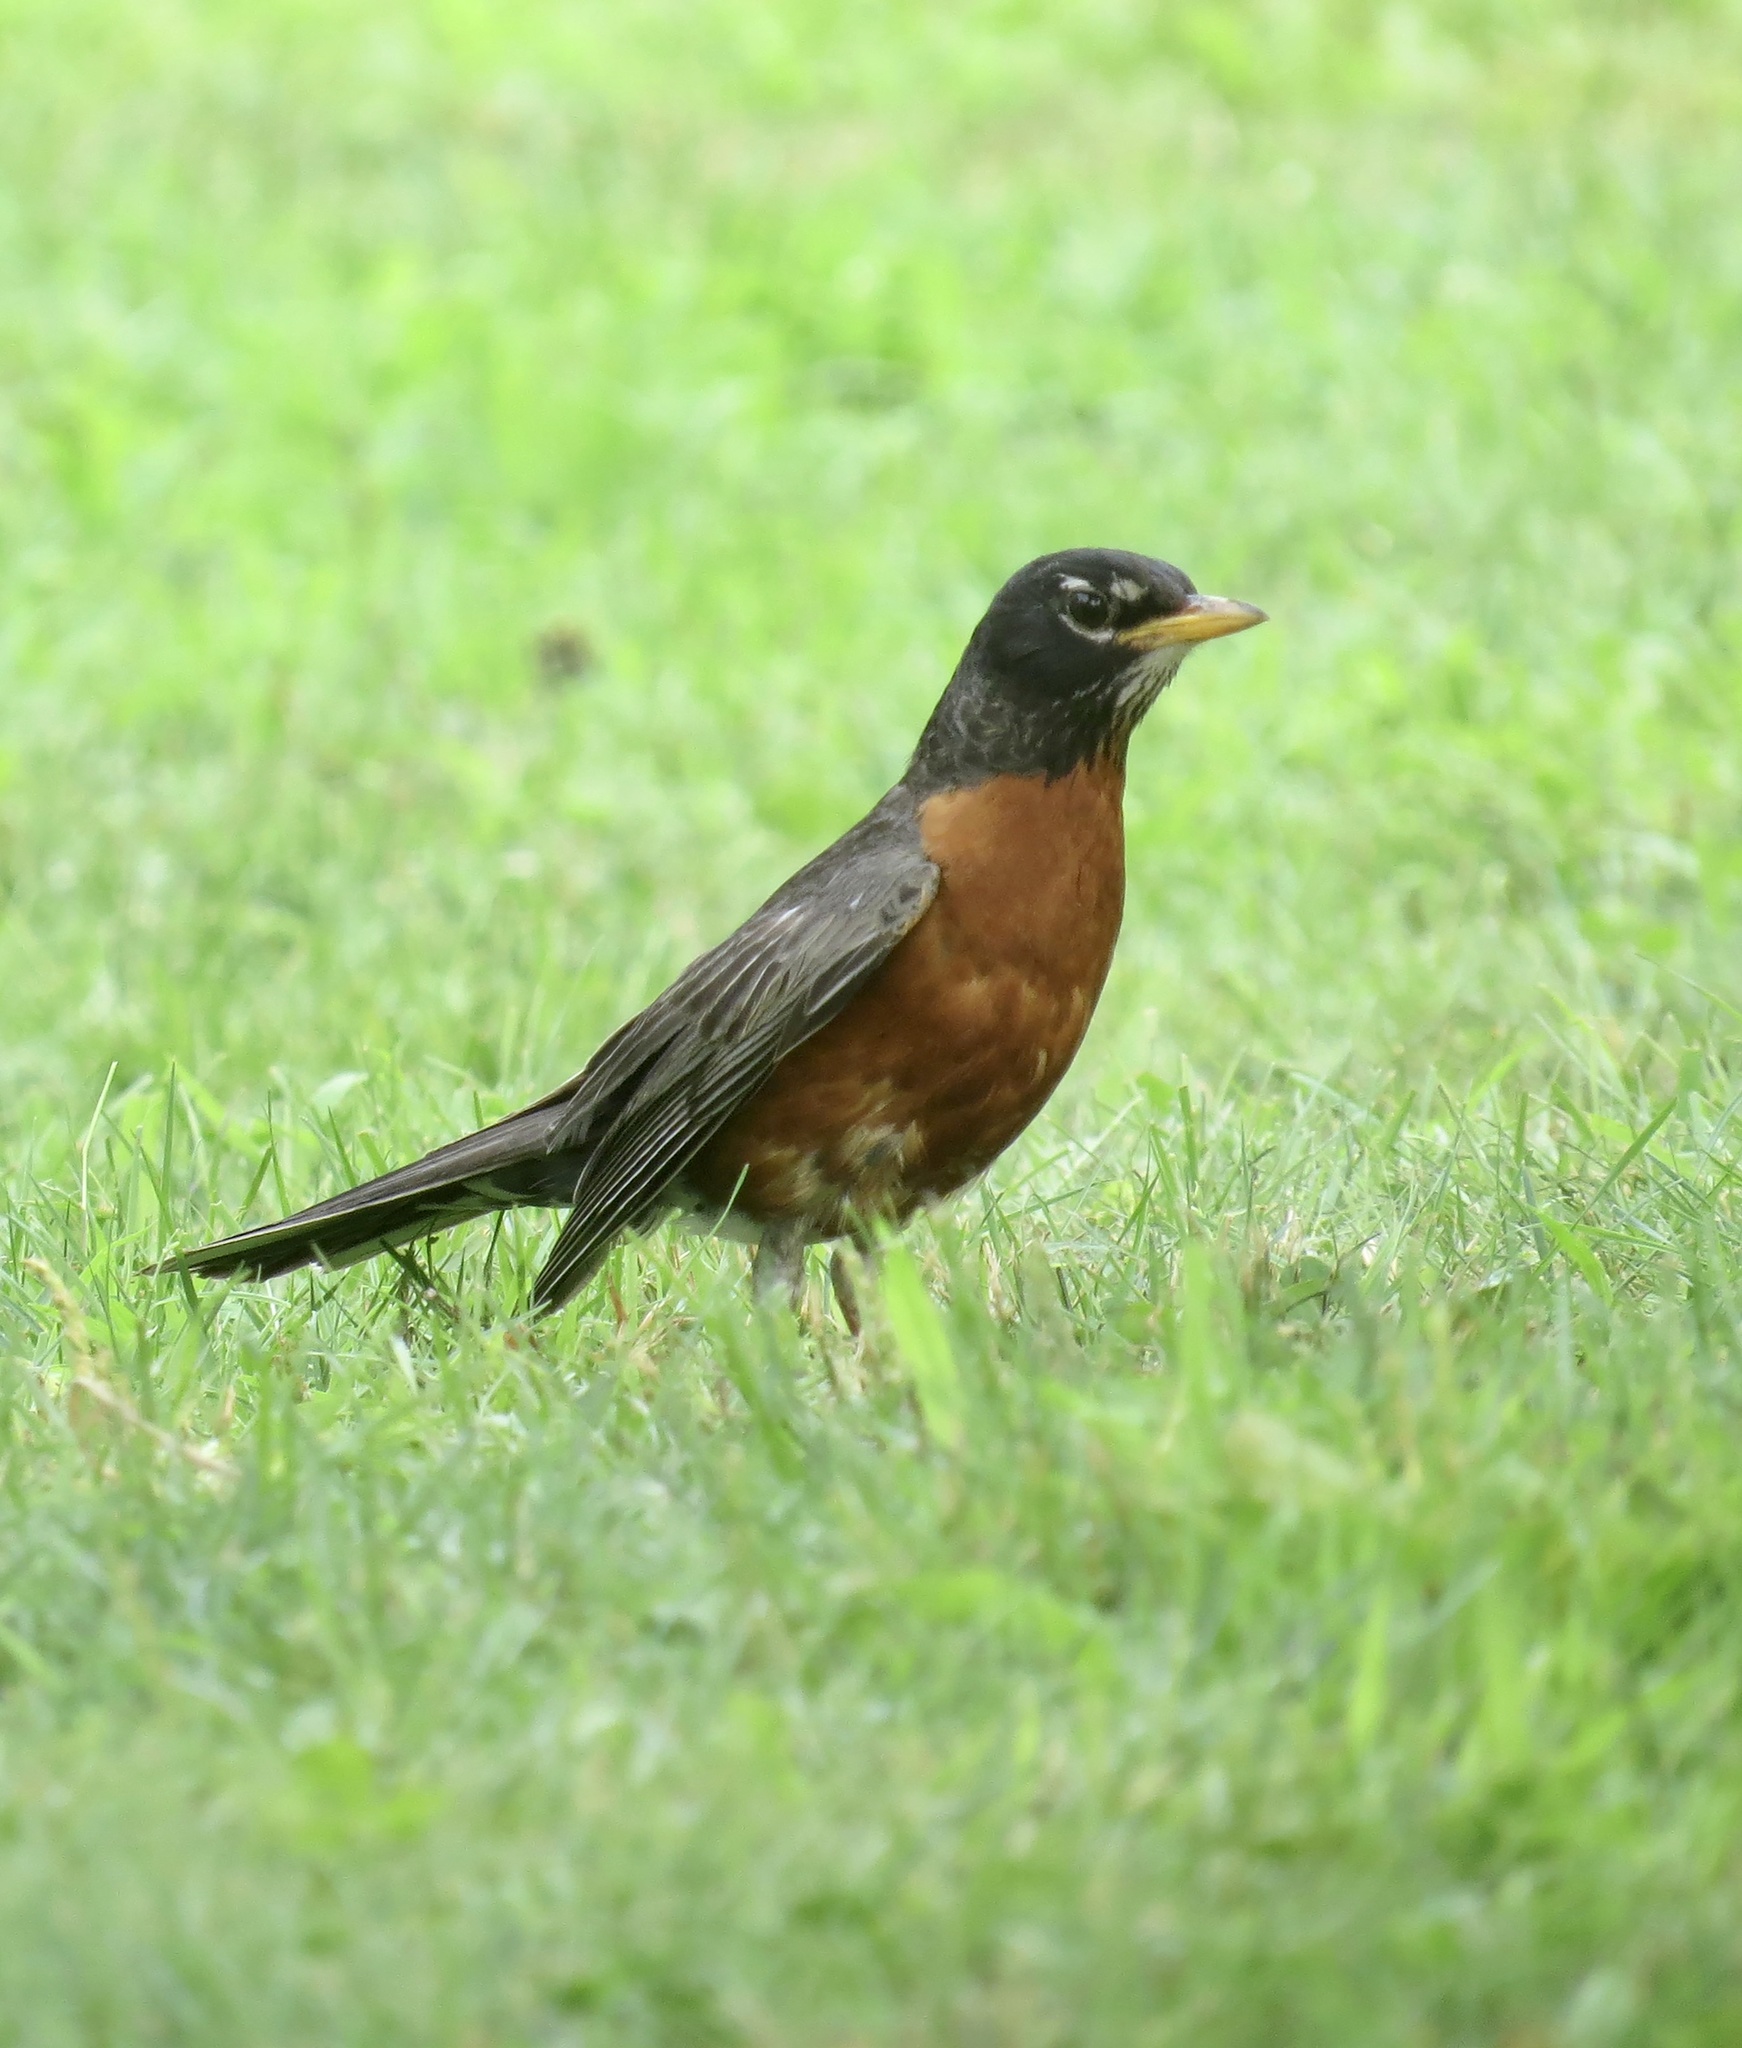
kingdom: Animalia
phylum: Chordata
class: Aves
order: Passeriformes
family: Turdidae
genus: Turdus
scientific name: Turdus migratorius
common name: American robin
